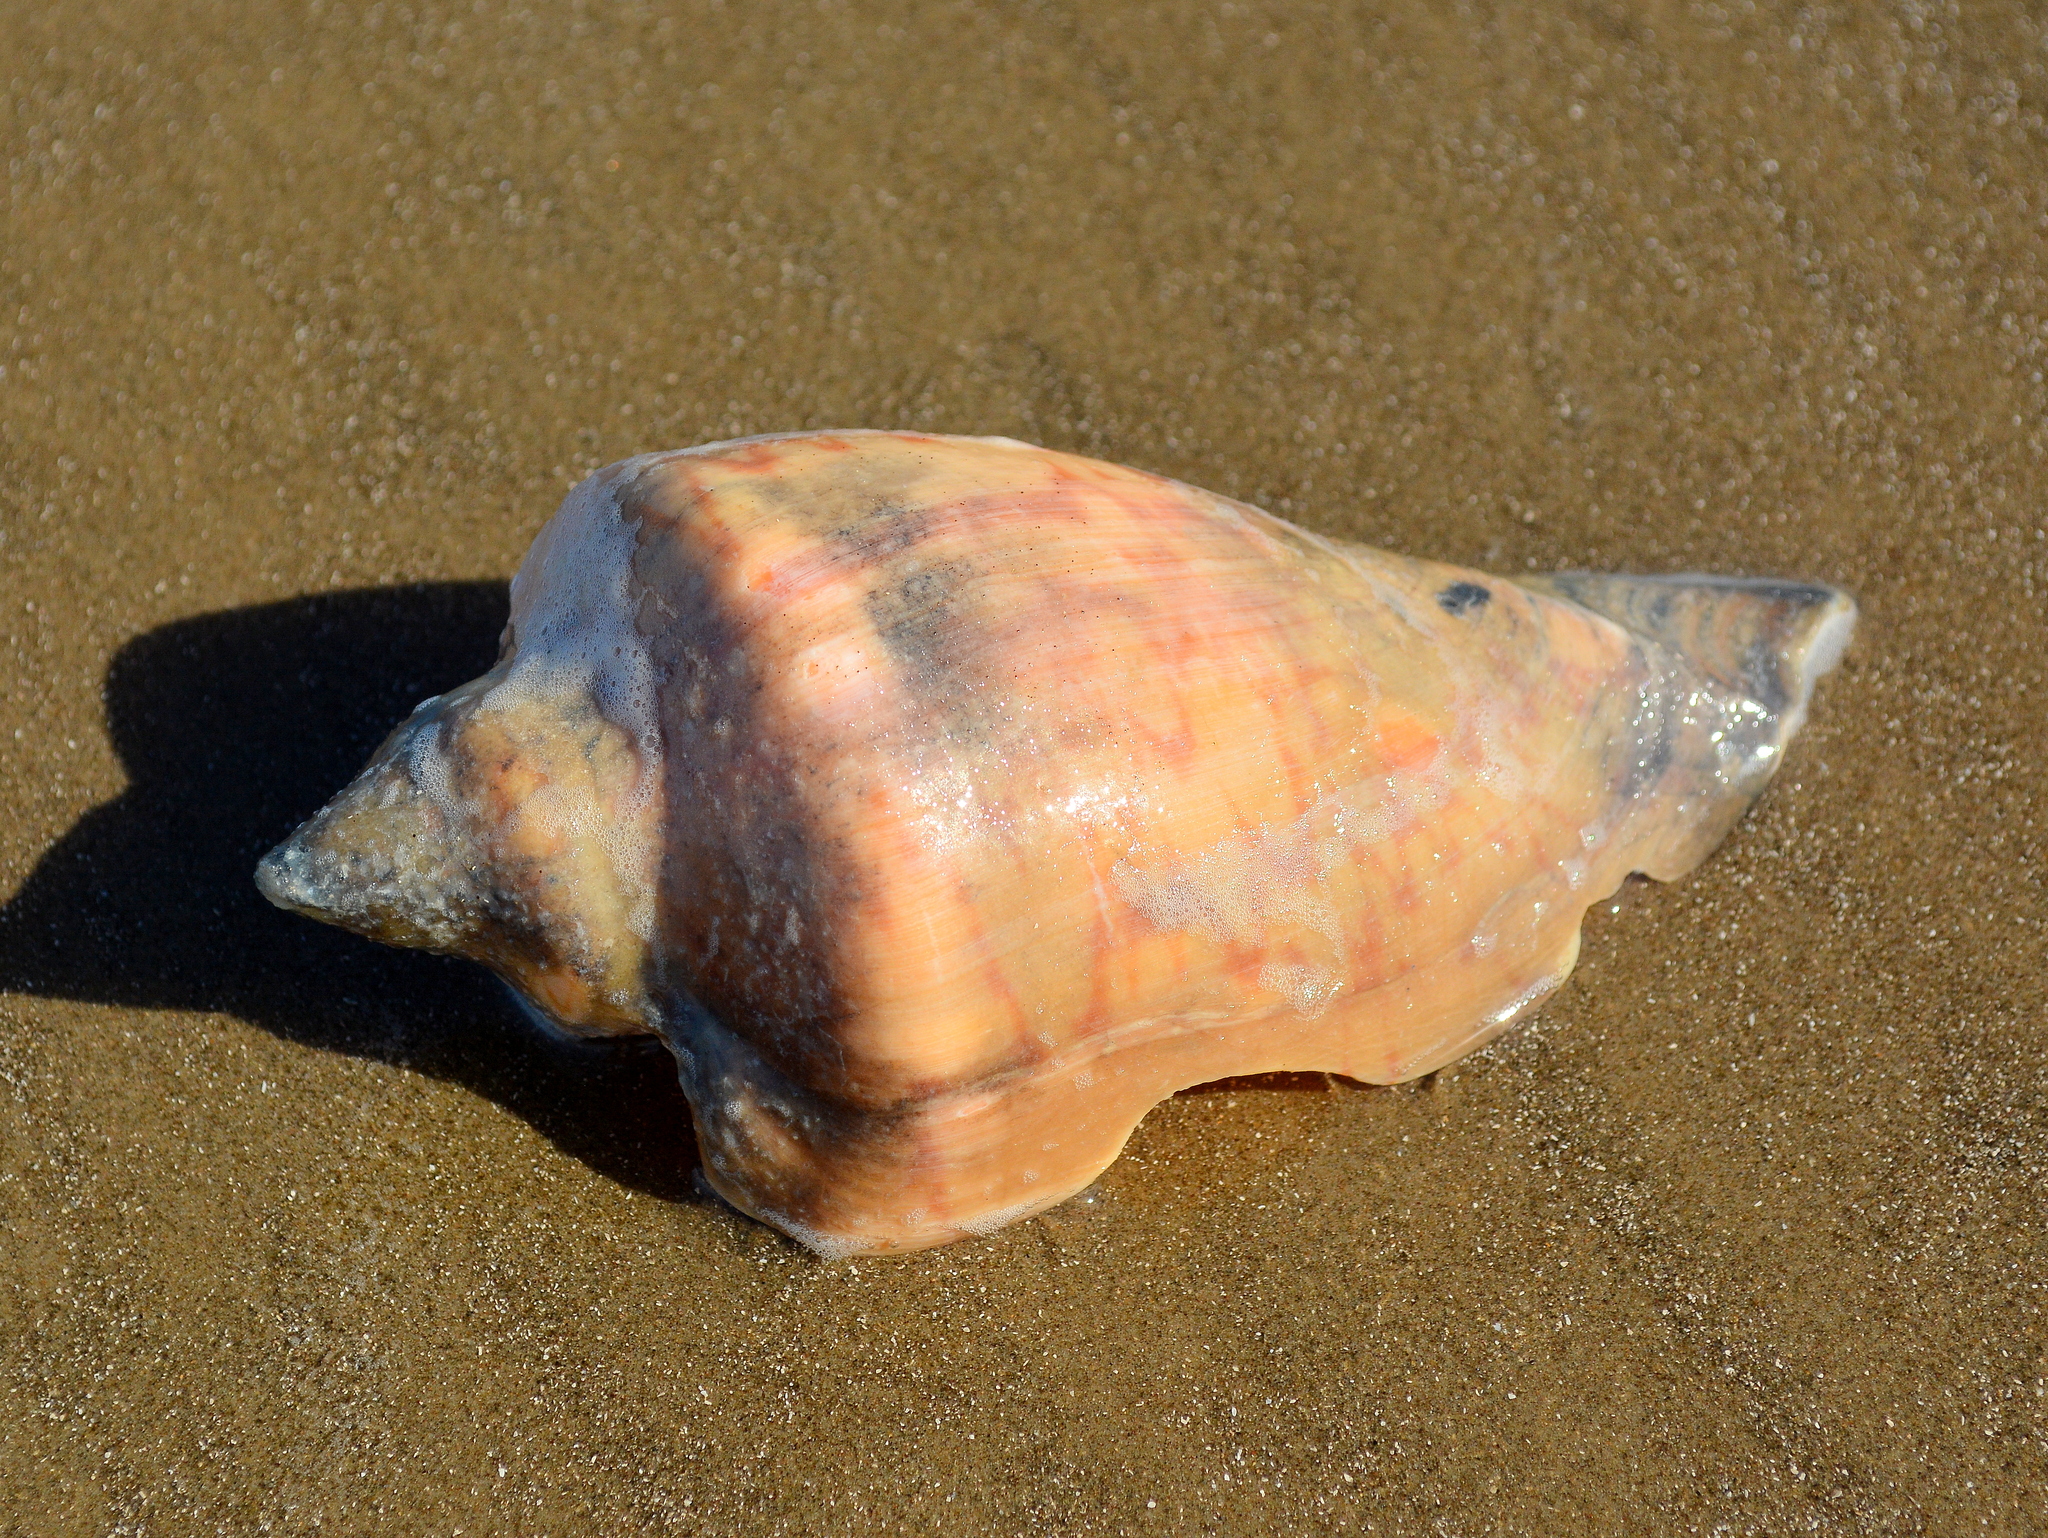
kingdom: Animalia
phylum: Mollusca
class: Gastropoda
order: Neogastropoda
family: Volutidae
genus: Zidona
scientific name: Zidona dufresnii
